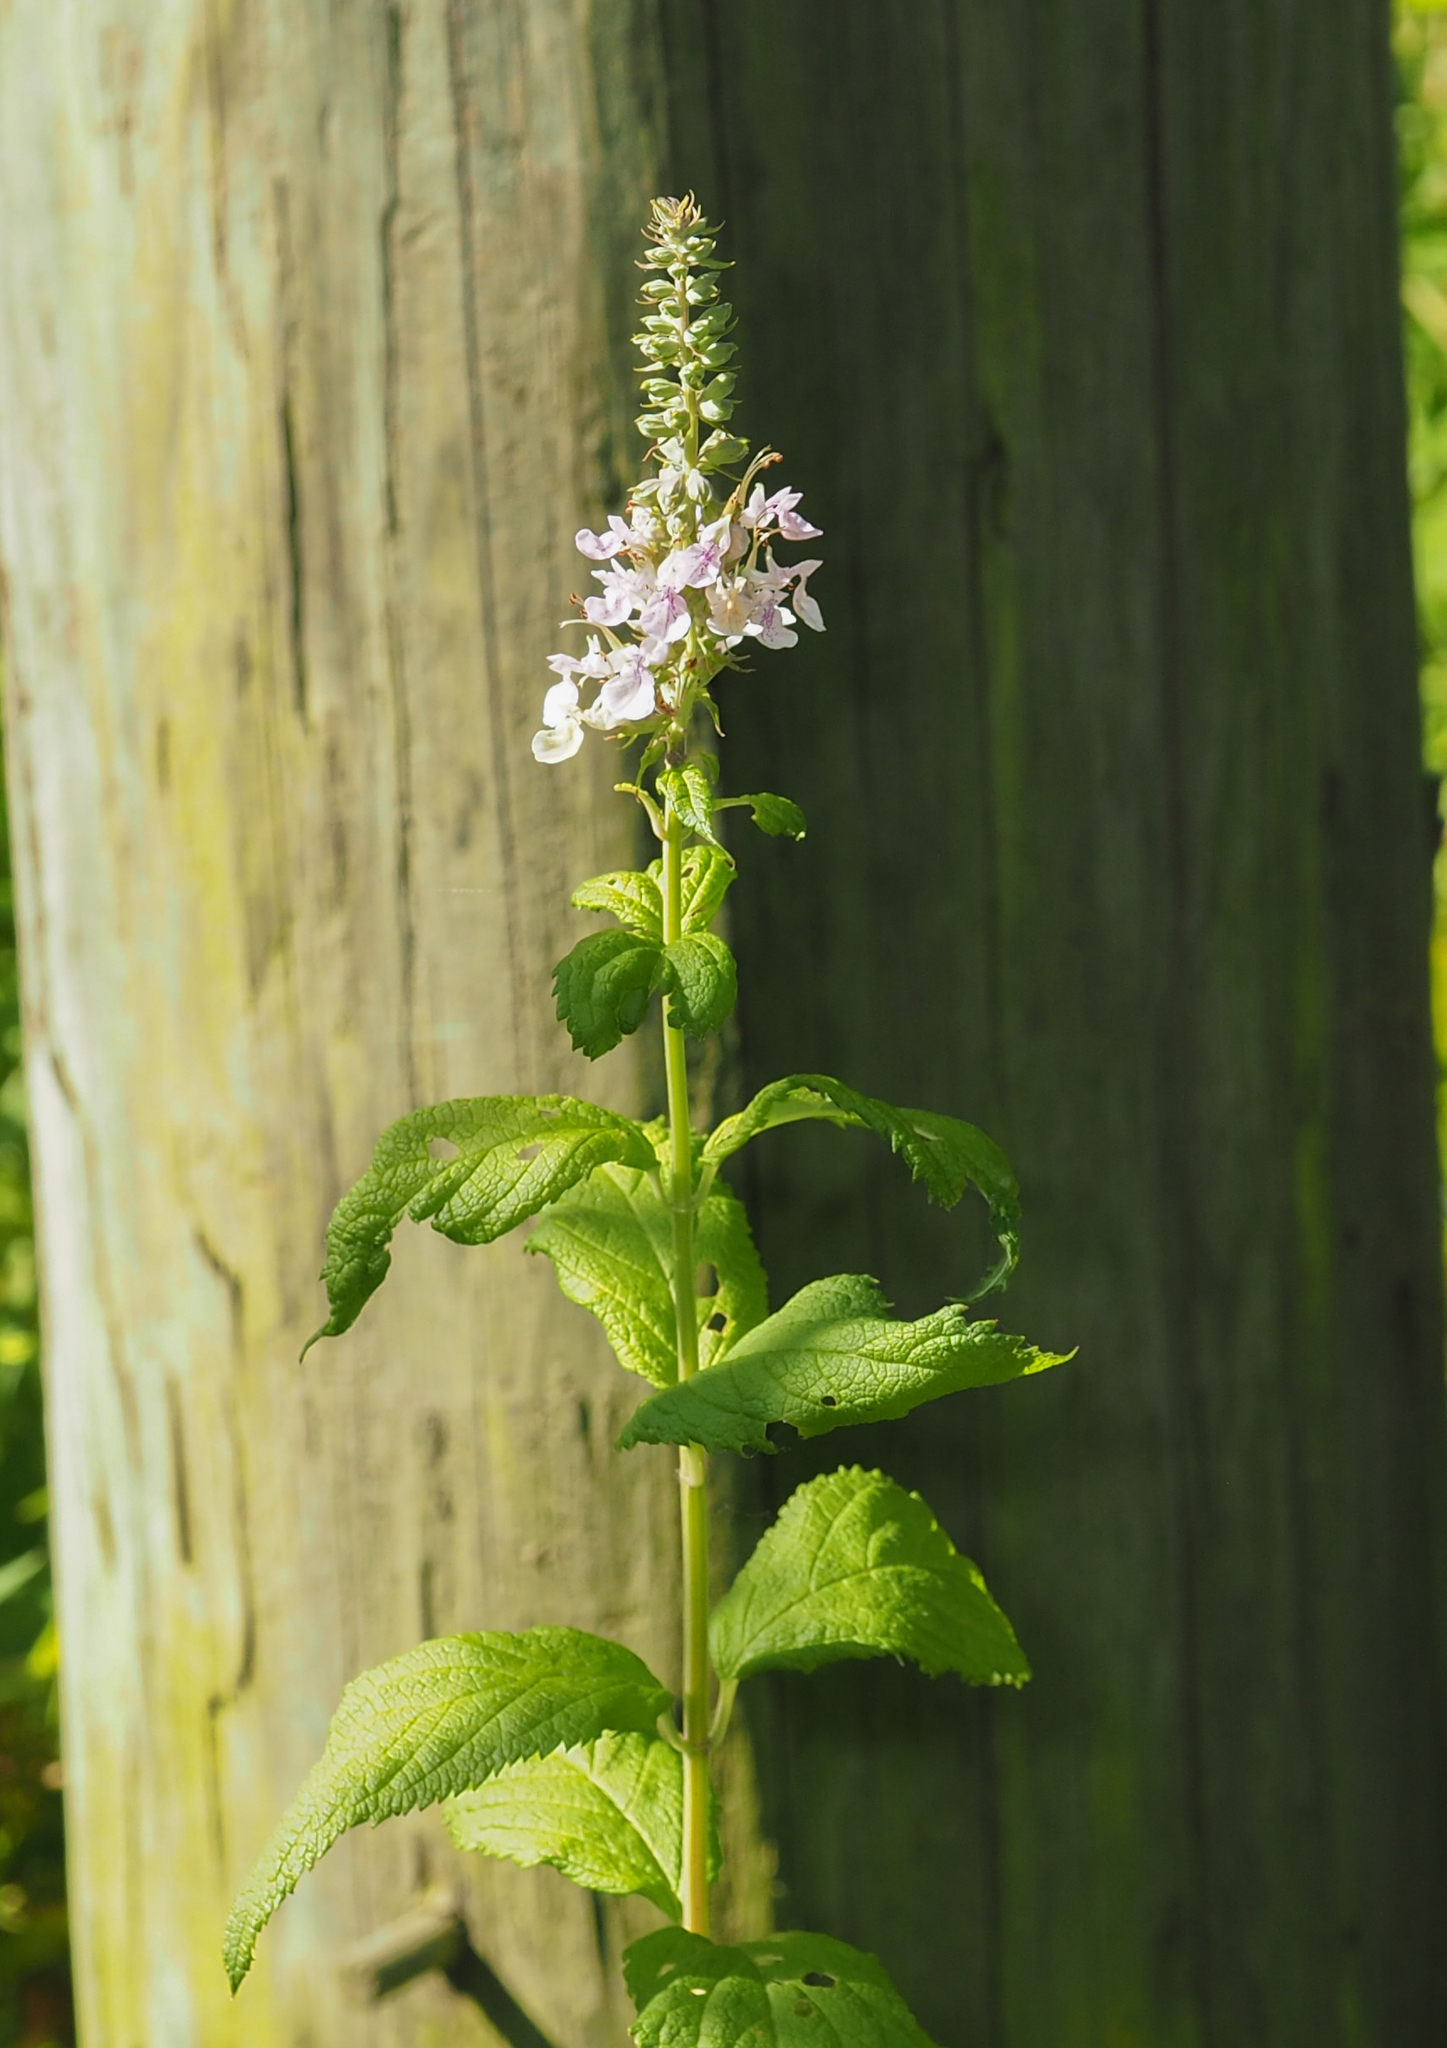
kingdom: Plantae
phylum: Tracheophyta
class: Magnoliopsida
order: Lamiales
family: Lamiaceae
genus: Teucrium
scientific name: Teucrium canadense
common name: American germander
